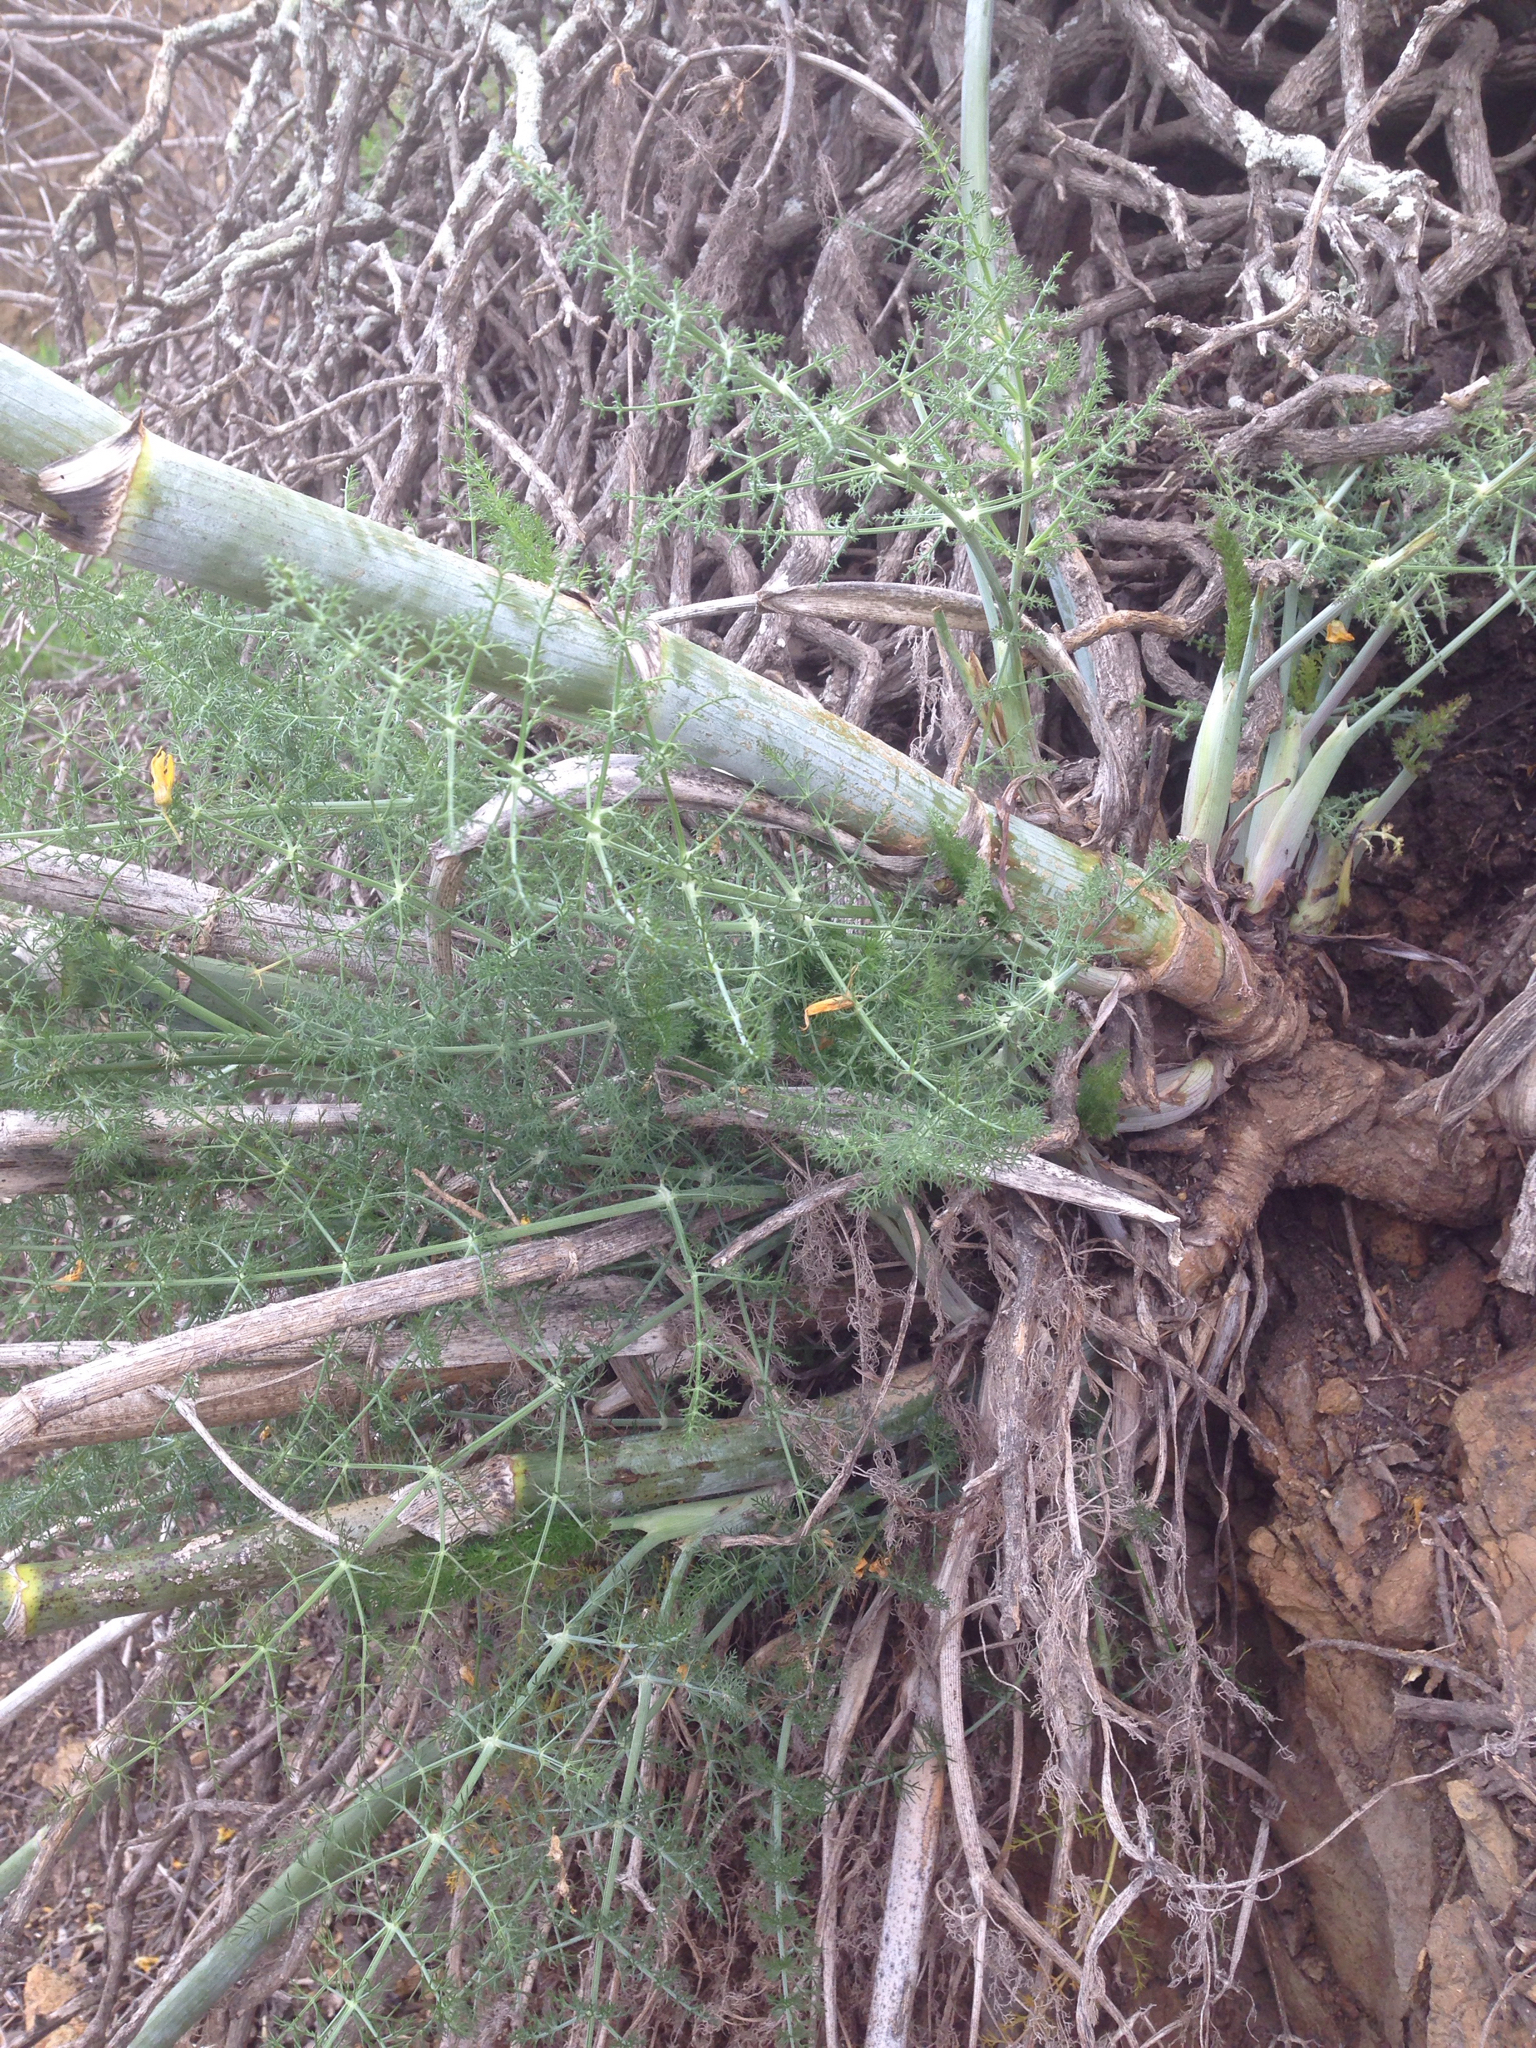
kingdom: Plantae
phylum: Tracheophyta
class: Magnoliopsida
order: Apiales
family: Apiaceae
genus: Foeniculum
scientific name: Foeniculum vulgare
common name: Fennel
